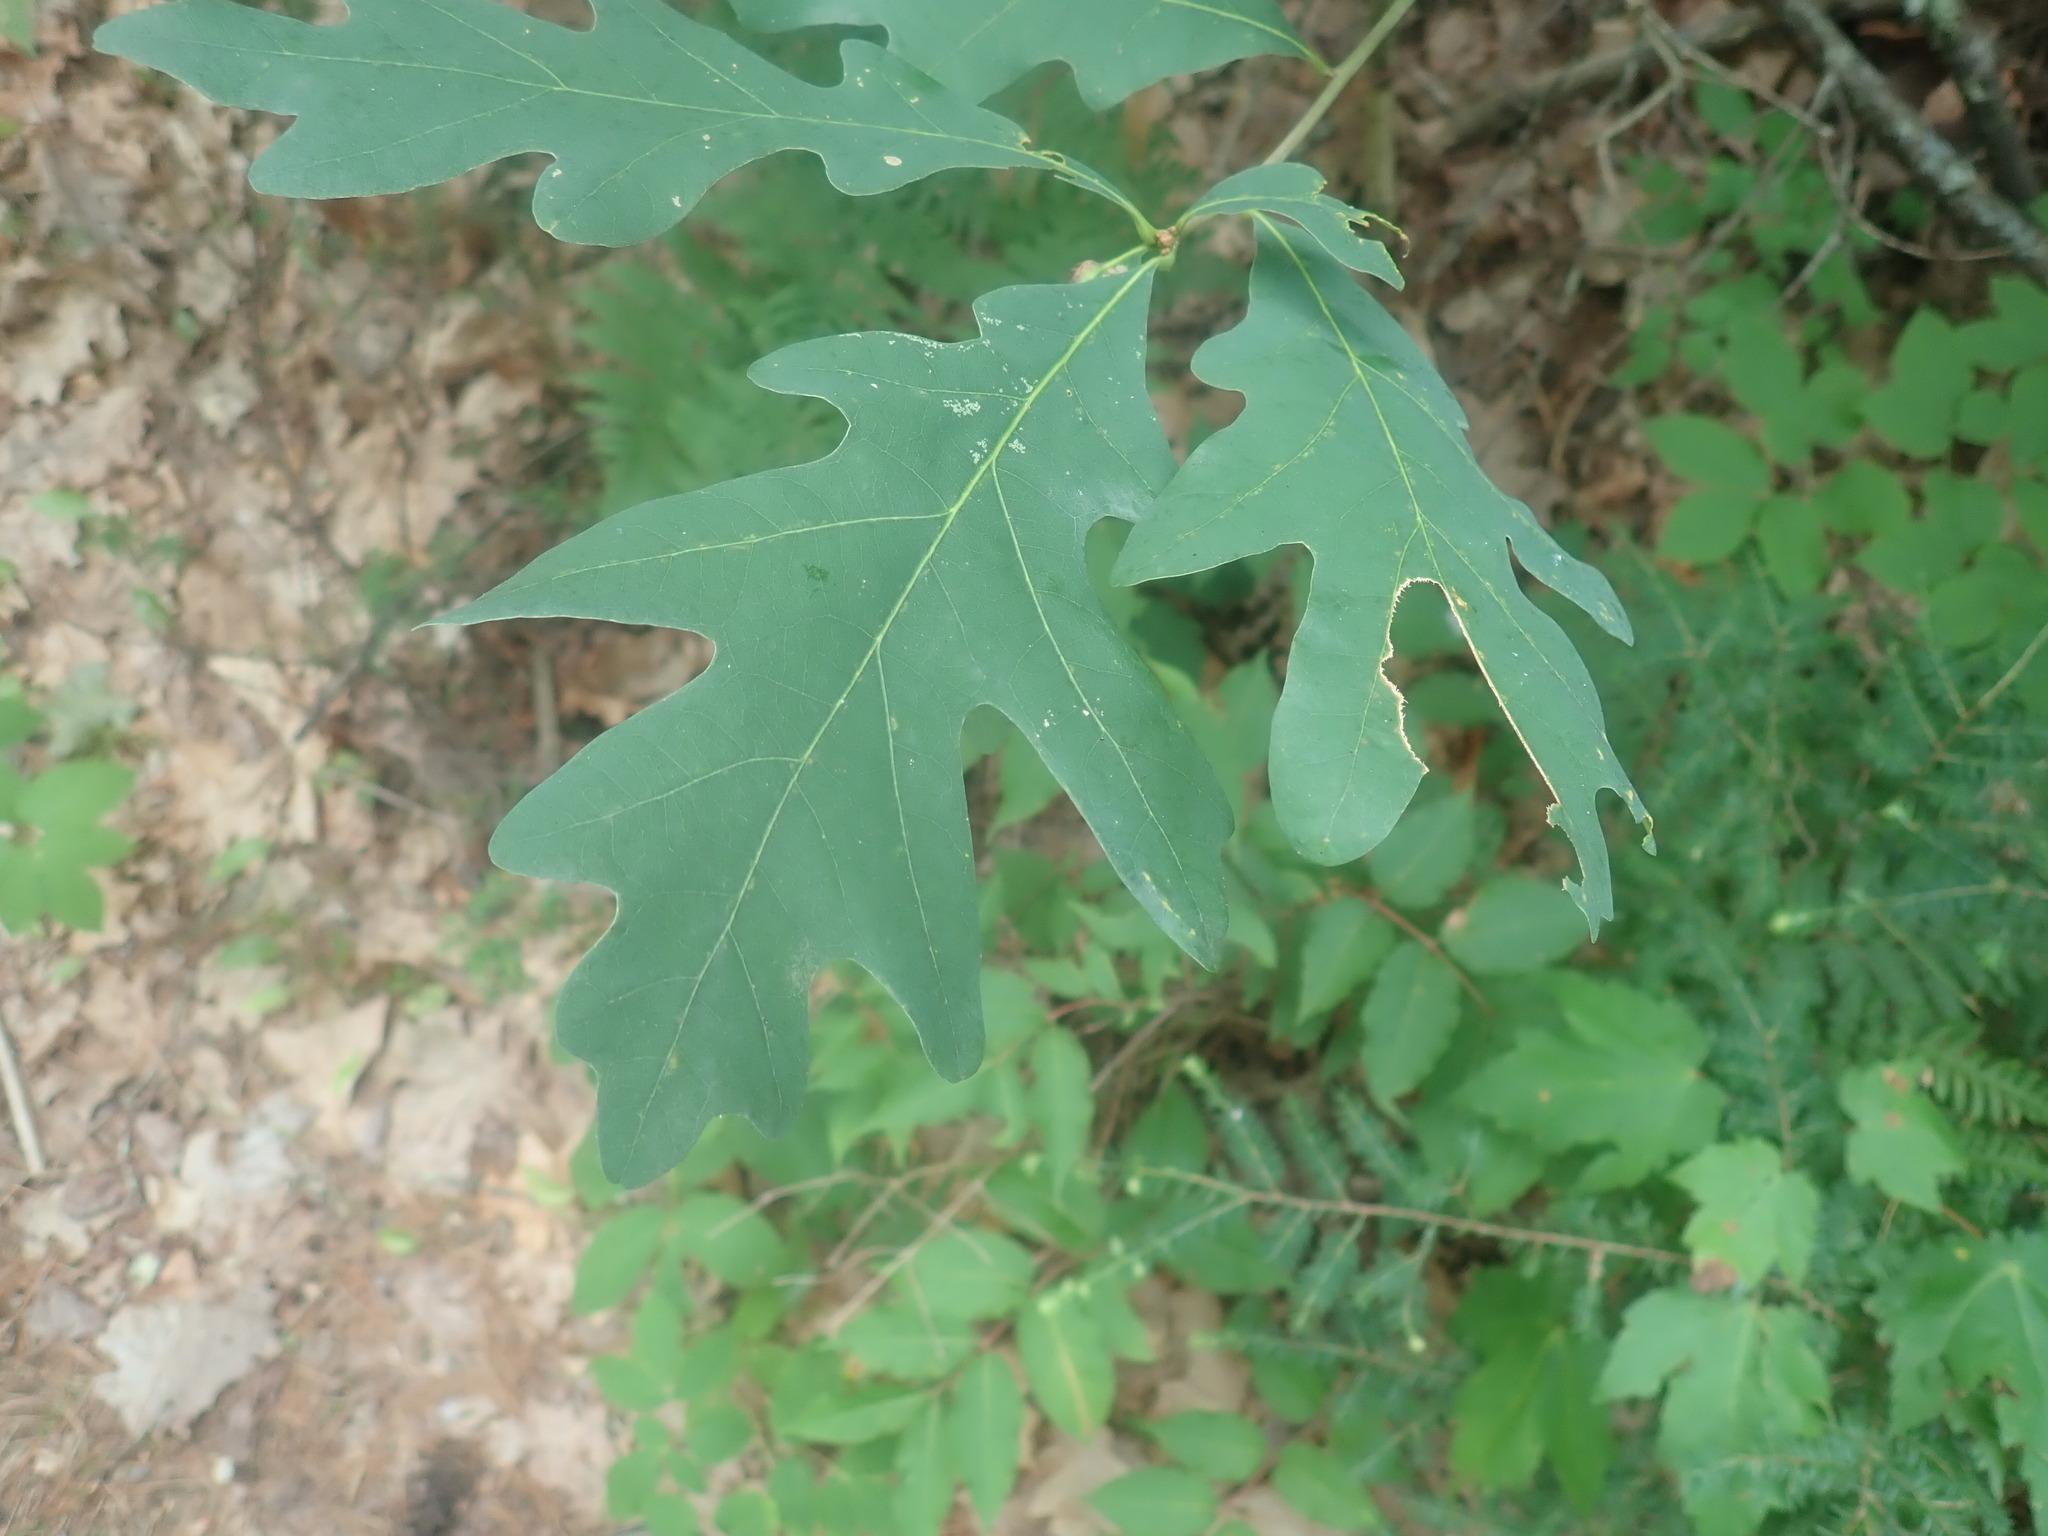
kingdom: Plantae
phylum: Tracheophyta
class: Magnoliopsida
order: Fagales
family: Fagaceae
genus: Quercus
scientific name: Quercus alba
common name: White oak
